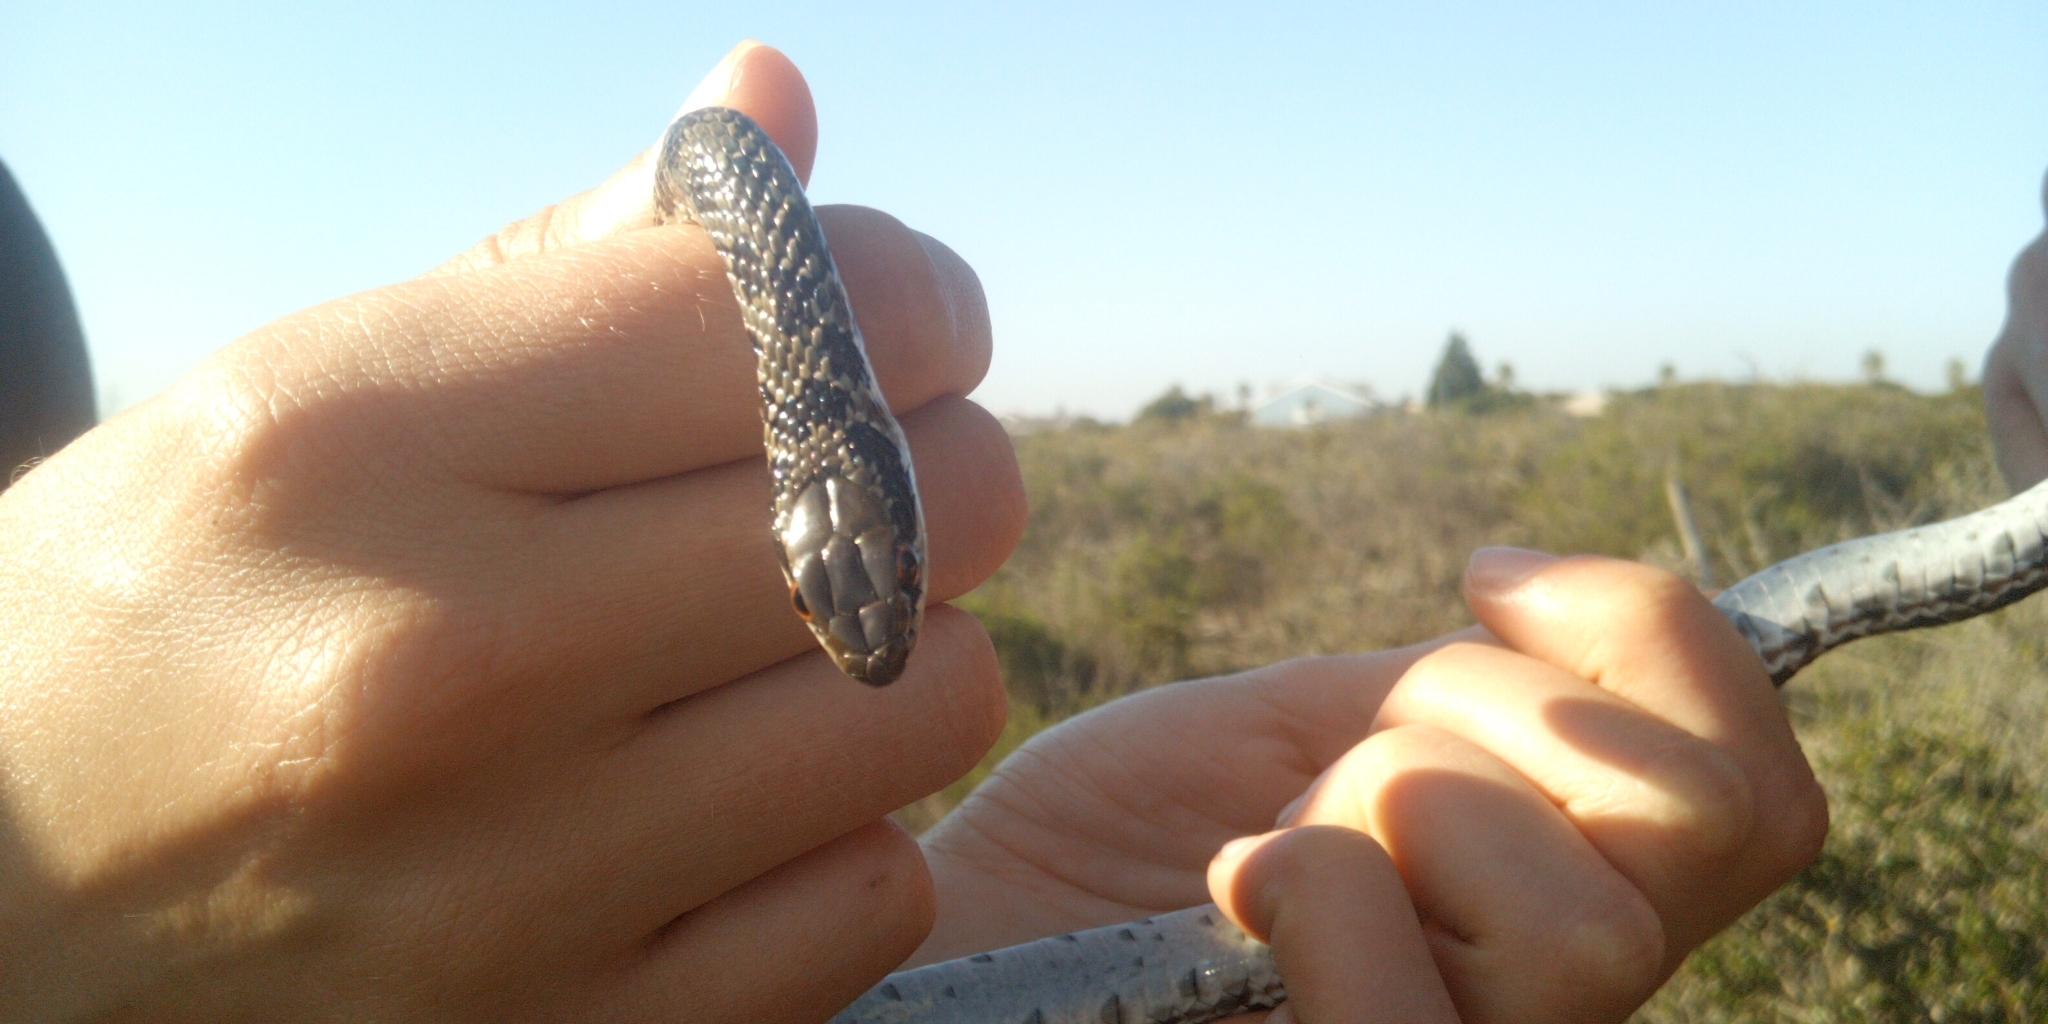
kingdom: Animalia
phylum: Chordata
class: Squamata
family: Psammophiidae
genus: Psammophylax
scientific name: Psammophylax rhombeatus
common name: Rhombic skaapsteker
